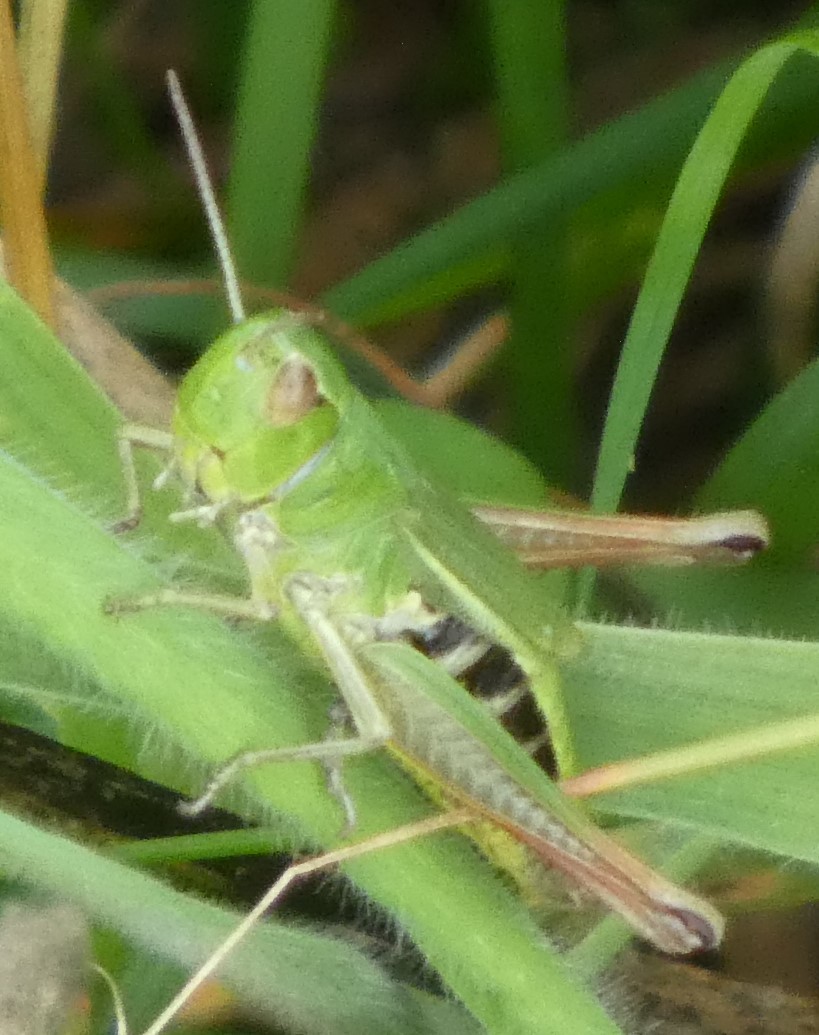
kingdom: Animalia
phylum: Arthropoda
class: Insecta
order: Orthoptera
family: Acrididae
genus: Pseudochorthippus
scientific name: Pseudochorthippus parallelus
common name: Meadow grasshopper
